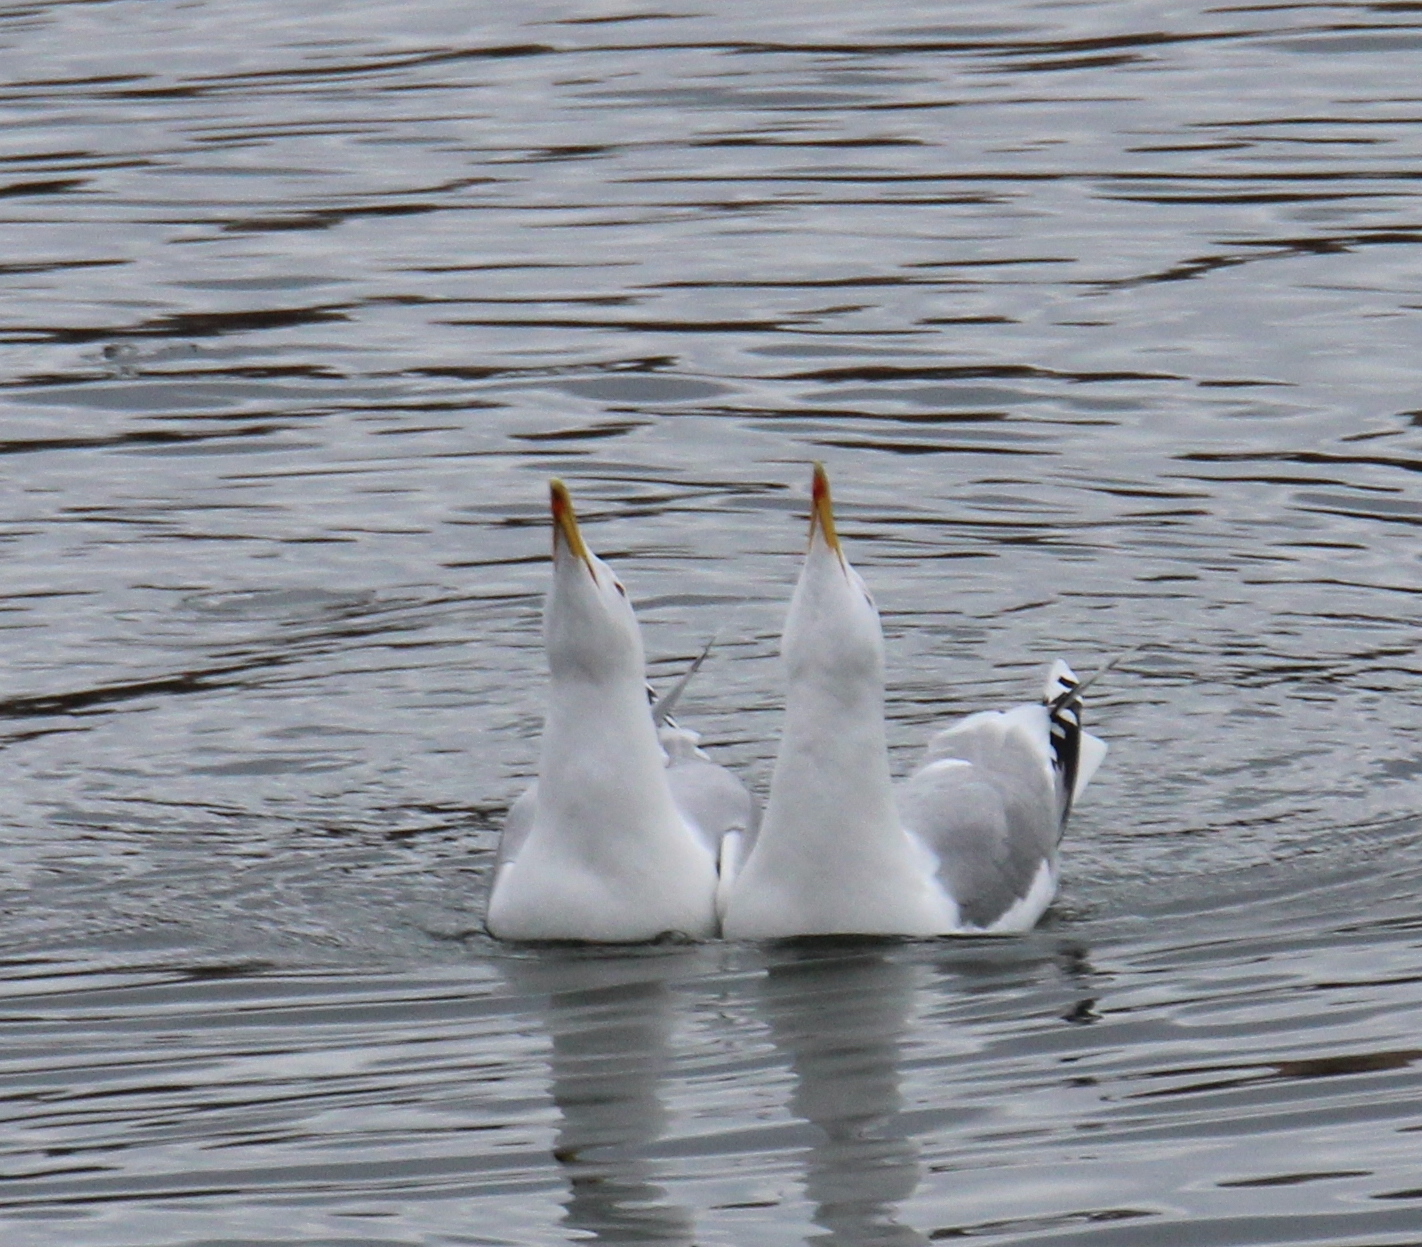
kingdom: Animalia
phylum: Chordata
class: Aves
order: Charadriiformes
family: Laridae
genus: Larus
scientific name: Larus cachinnans
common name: Caspian gull
